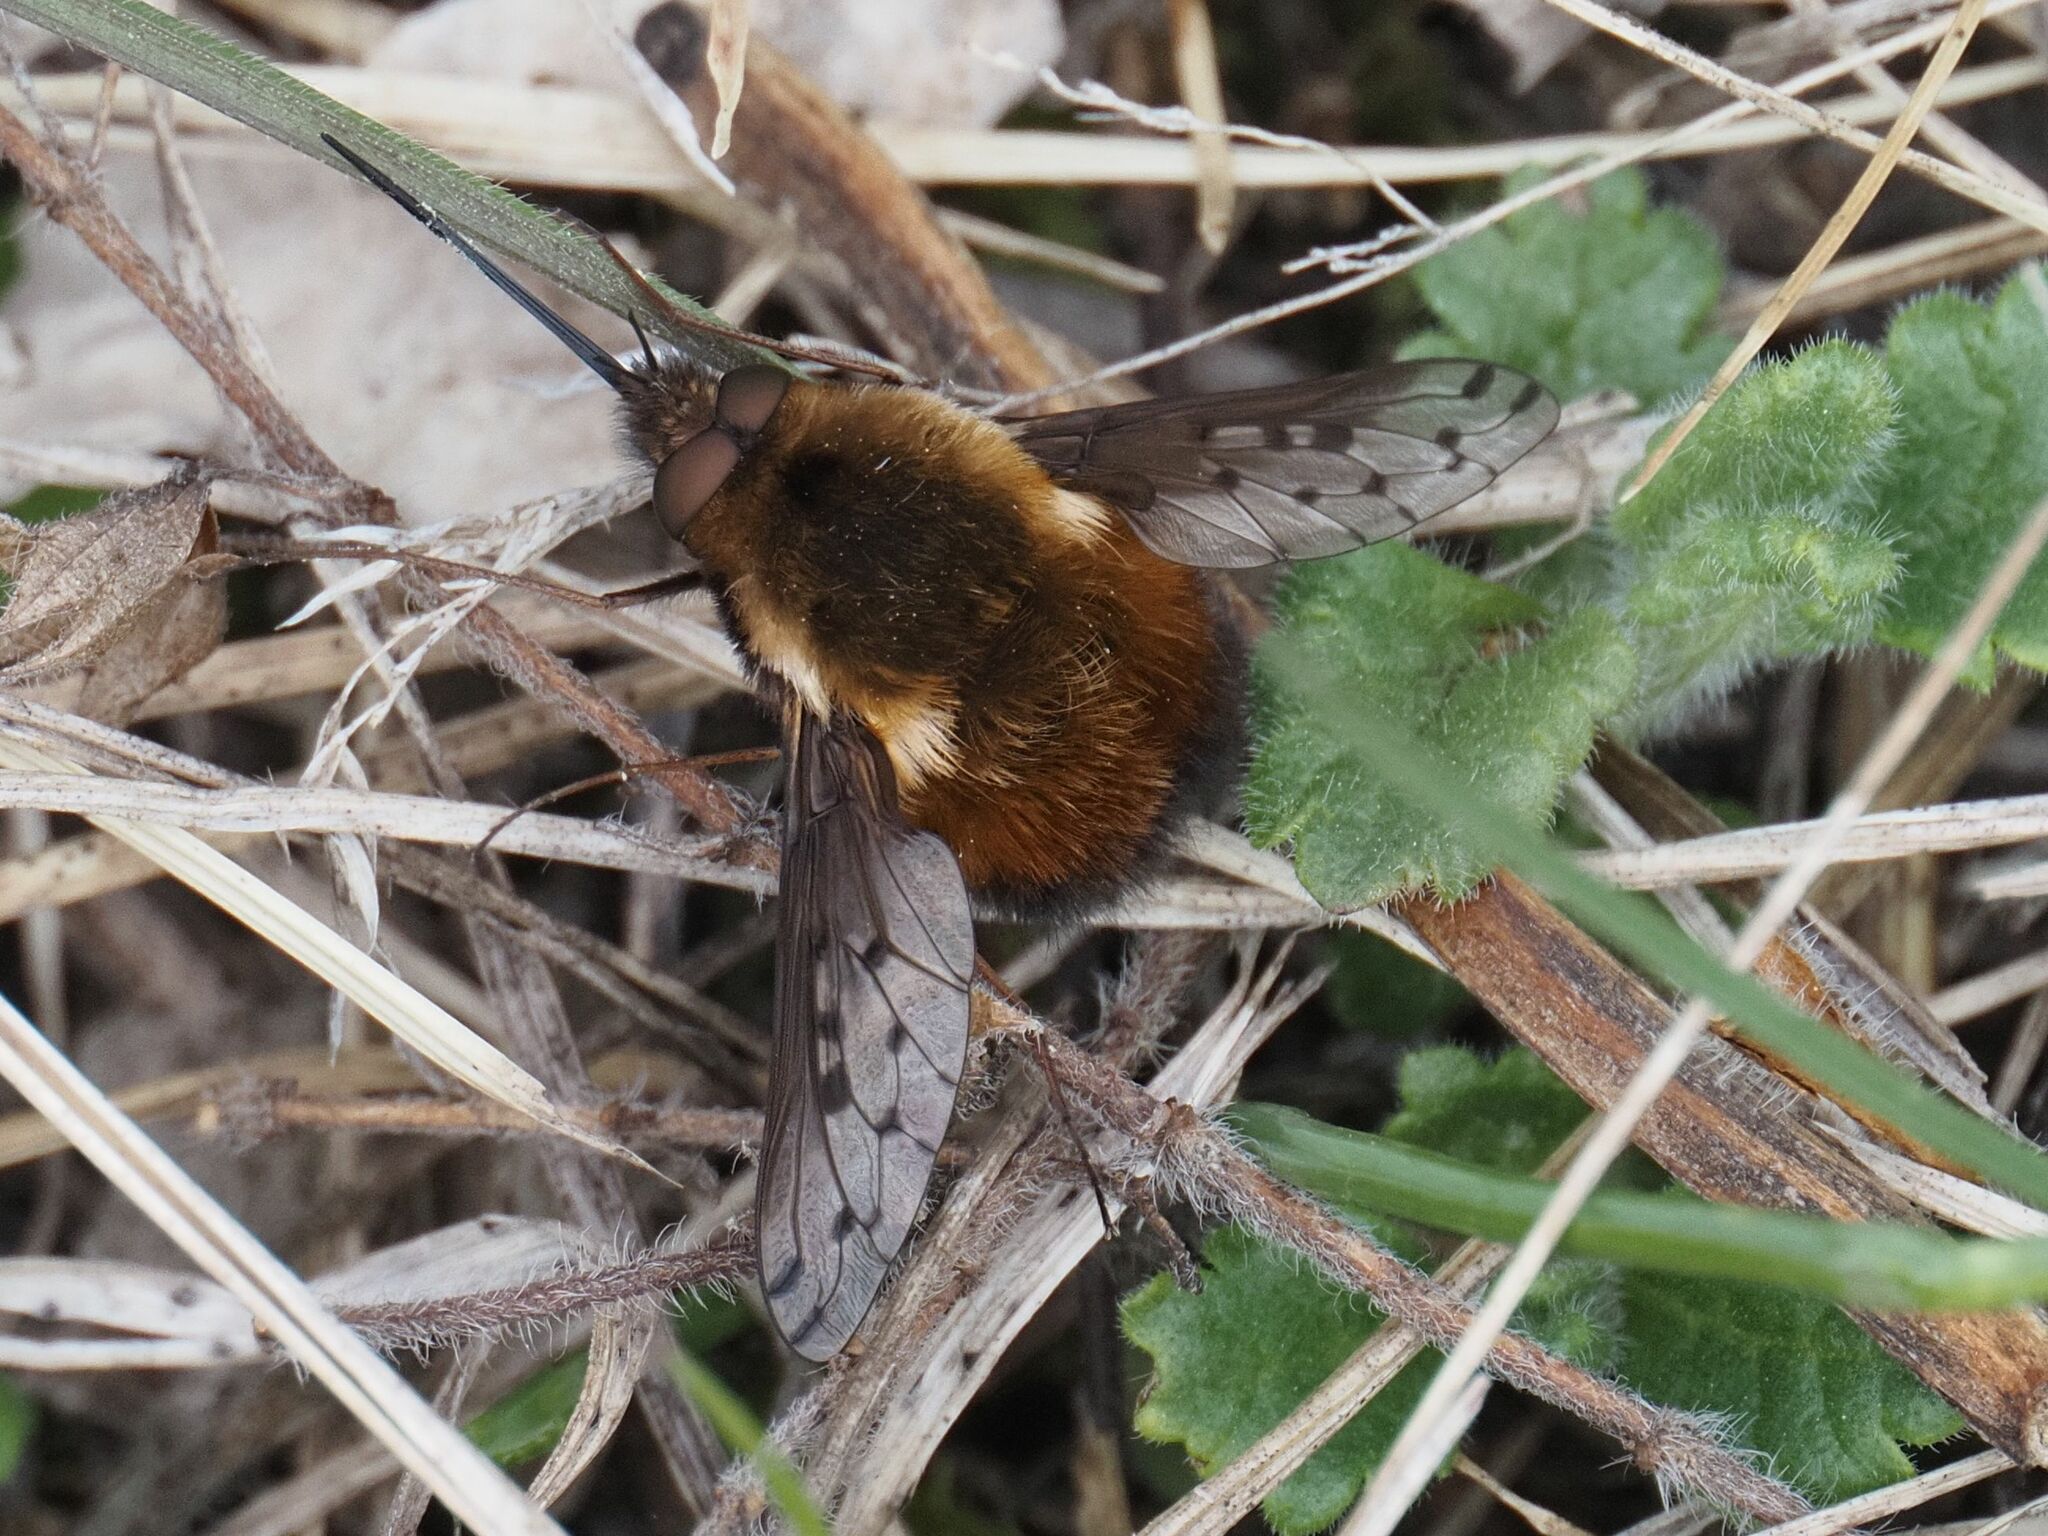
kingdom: Animalia
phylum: Arthropoda
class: Insecta
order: Diptera
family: Bombyliidae
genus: Bombylius
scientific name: Bombylius discolor
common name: Dotted bee-fly
